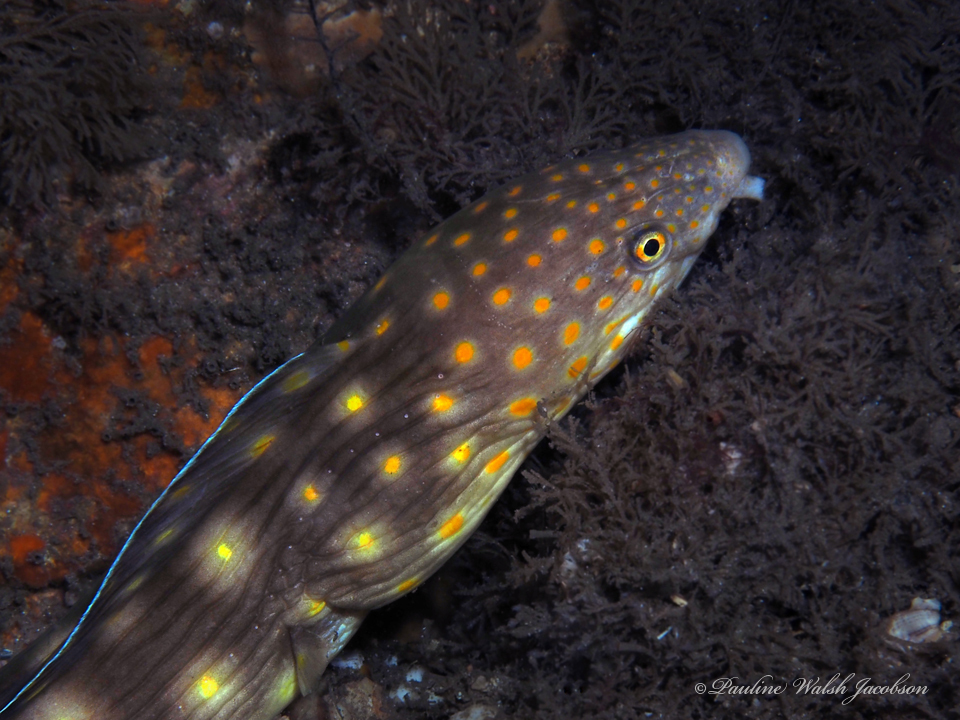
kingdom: Animalia
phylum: Chordata
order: Anguilliformes
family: Ophichthidae
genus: Myrichthys
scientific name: Myrichthys breviceps
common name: Sharptail eel
